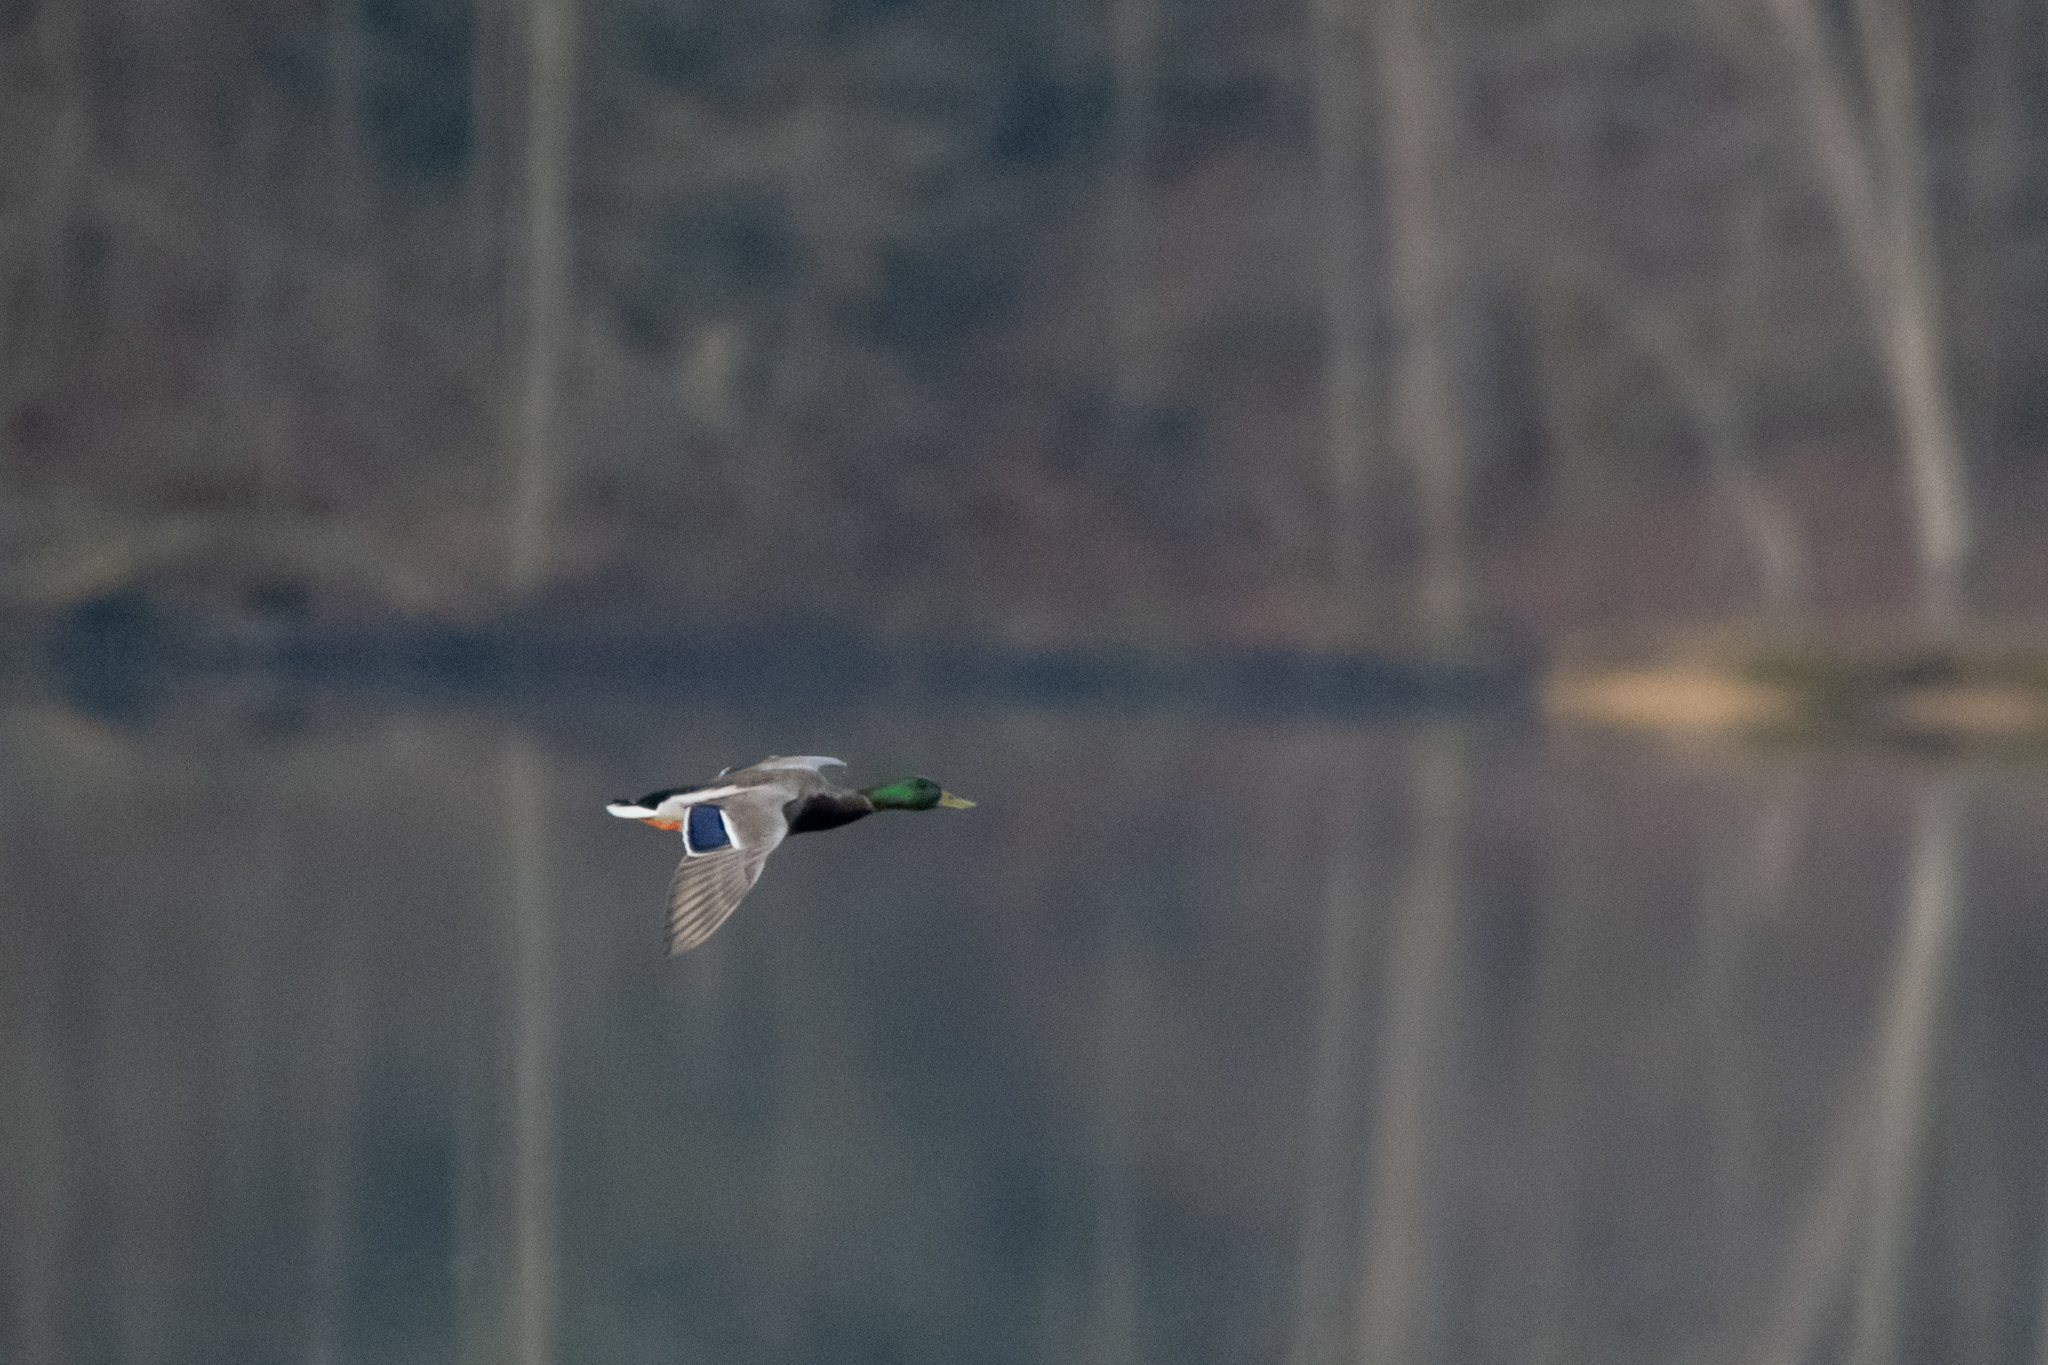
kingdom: Animalia
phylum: Chordata
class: Aves
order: Anseriformes
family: Anatidae
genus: Anas
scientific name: Anas platyrhynchos
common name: Mallard
